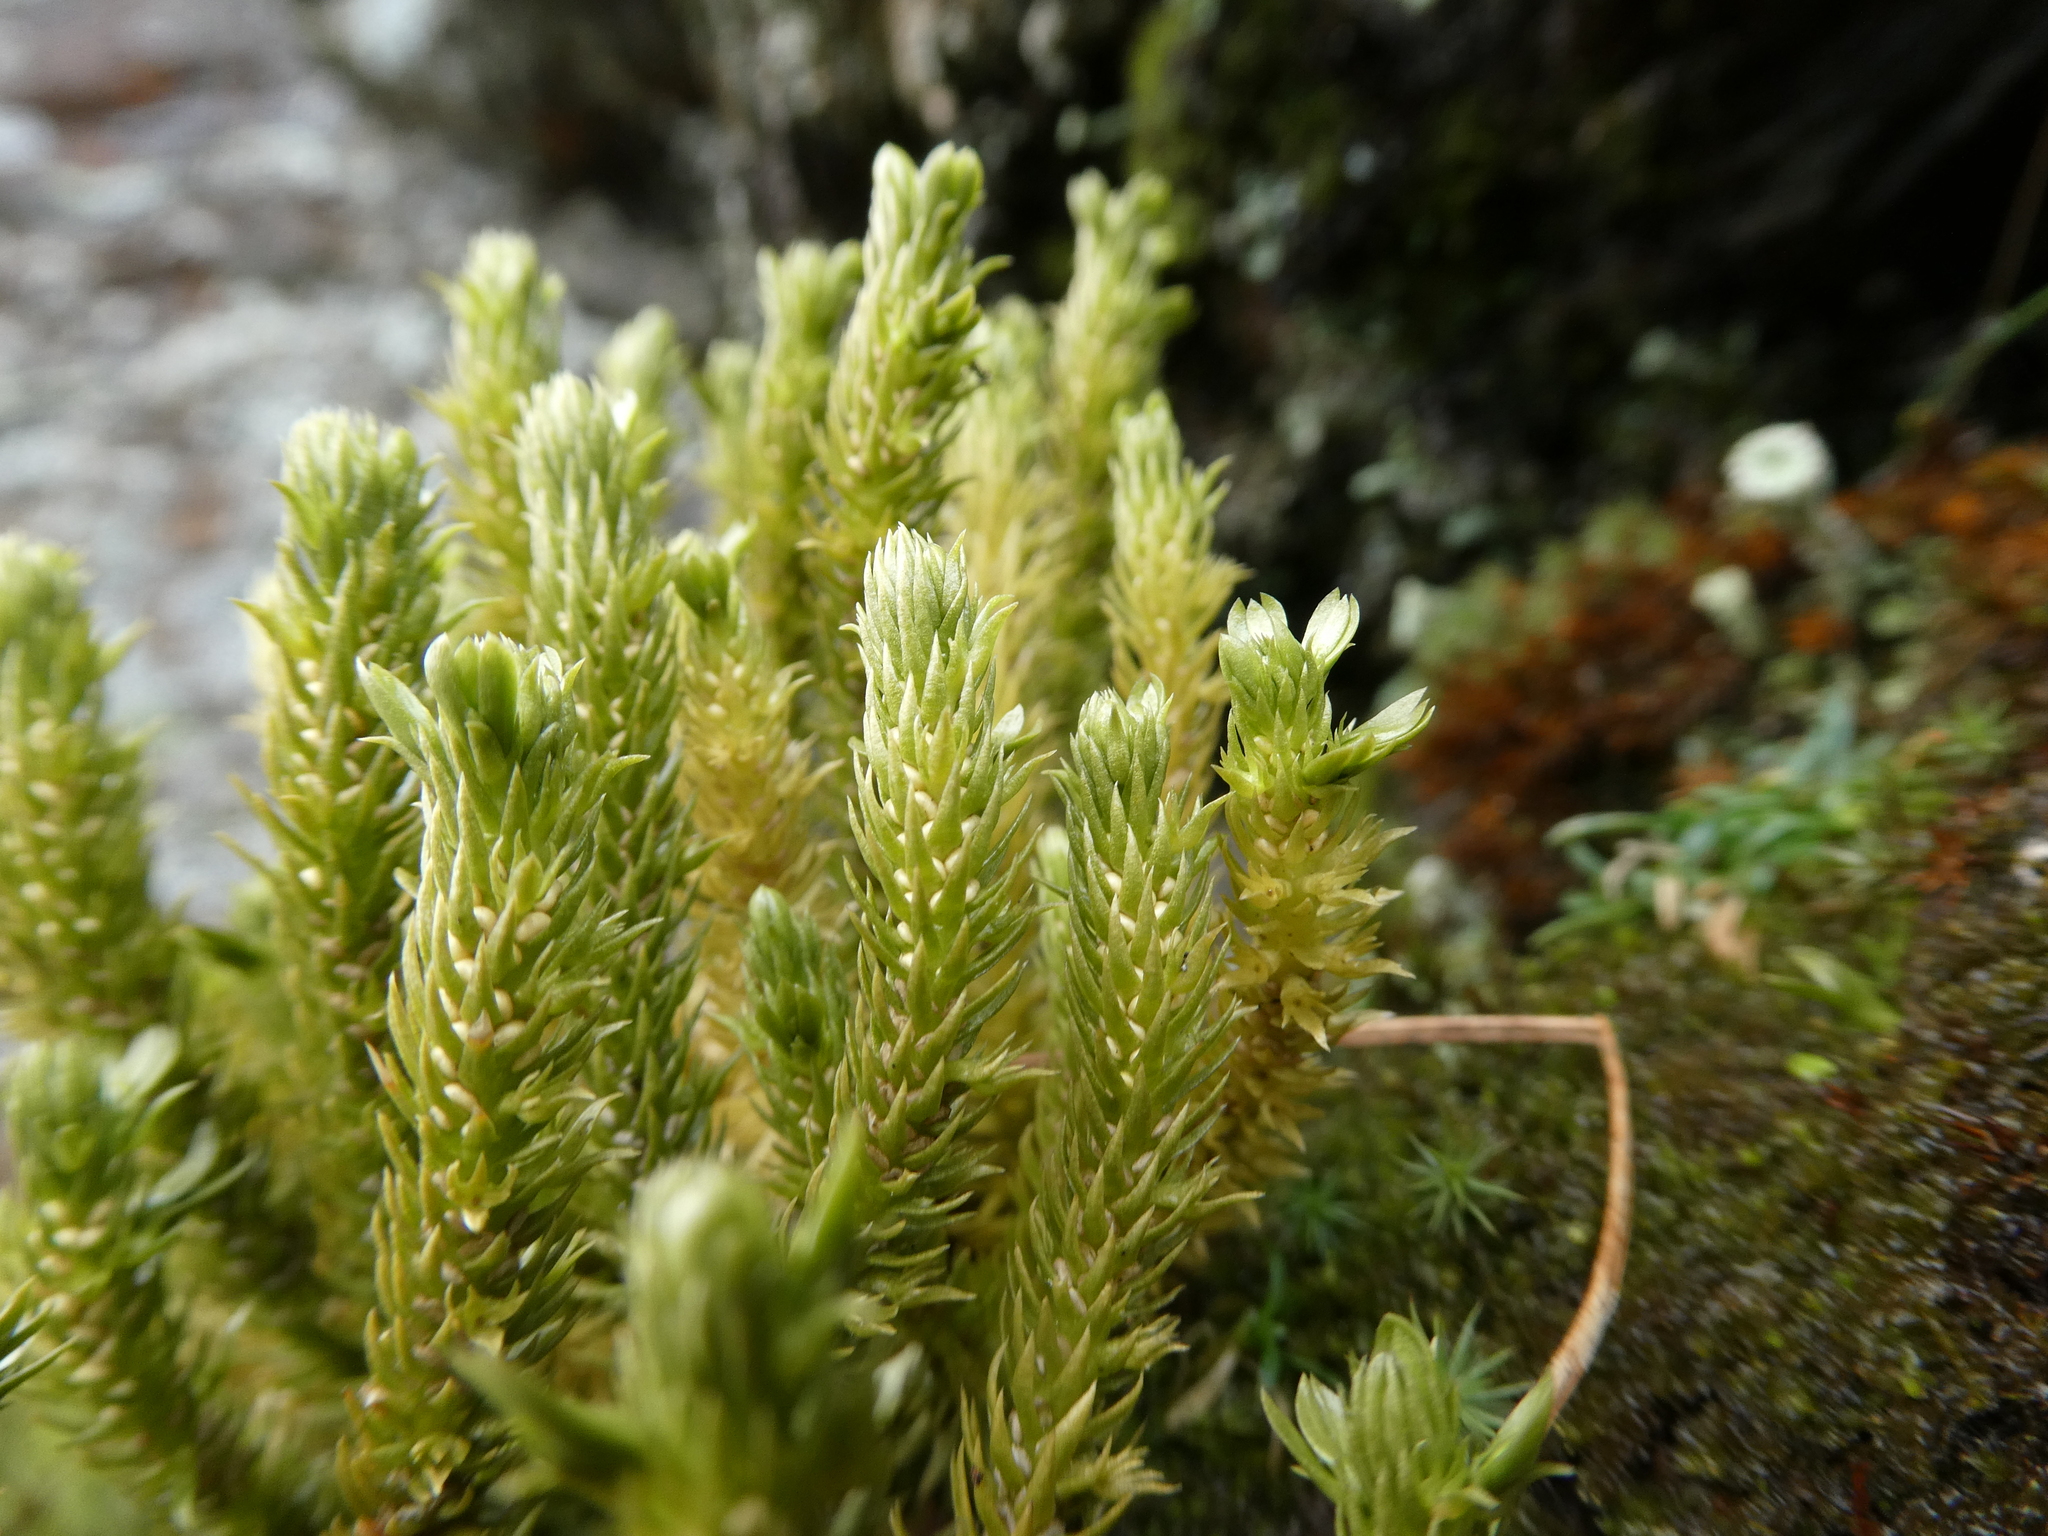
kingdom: Plantae
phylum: Tracheophyta
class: Lycopodiopsida
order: Lycopodiales
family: Lycopodiaceae
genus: Huperzia
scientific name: Huperzia selago
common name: Northern firmoss
